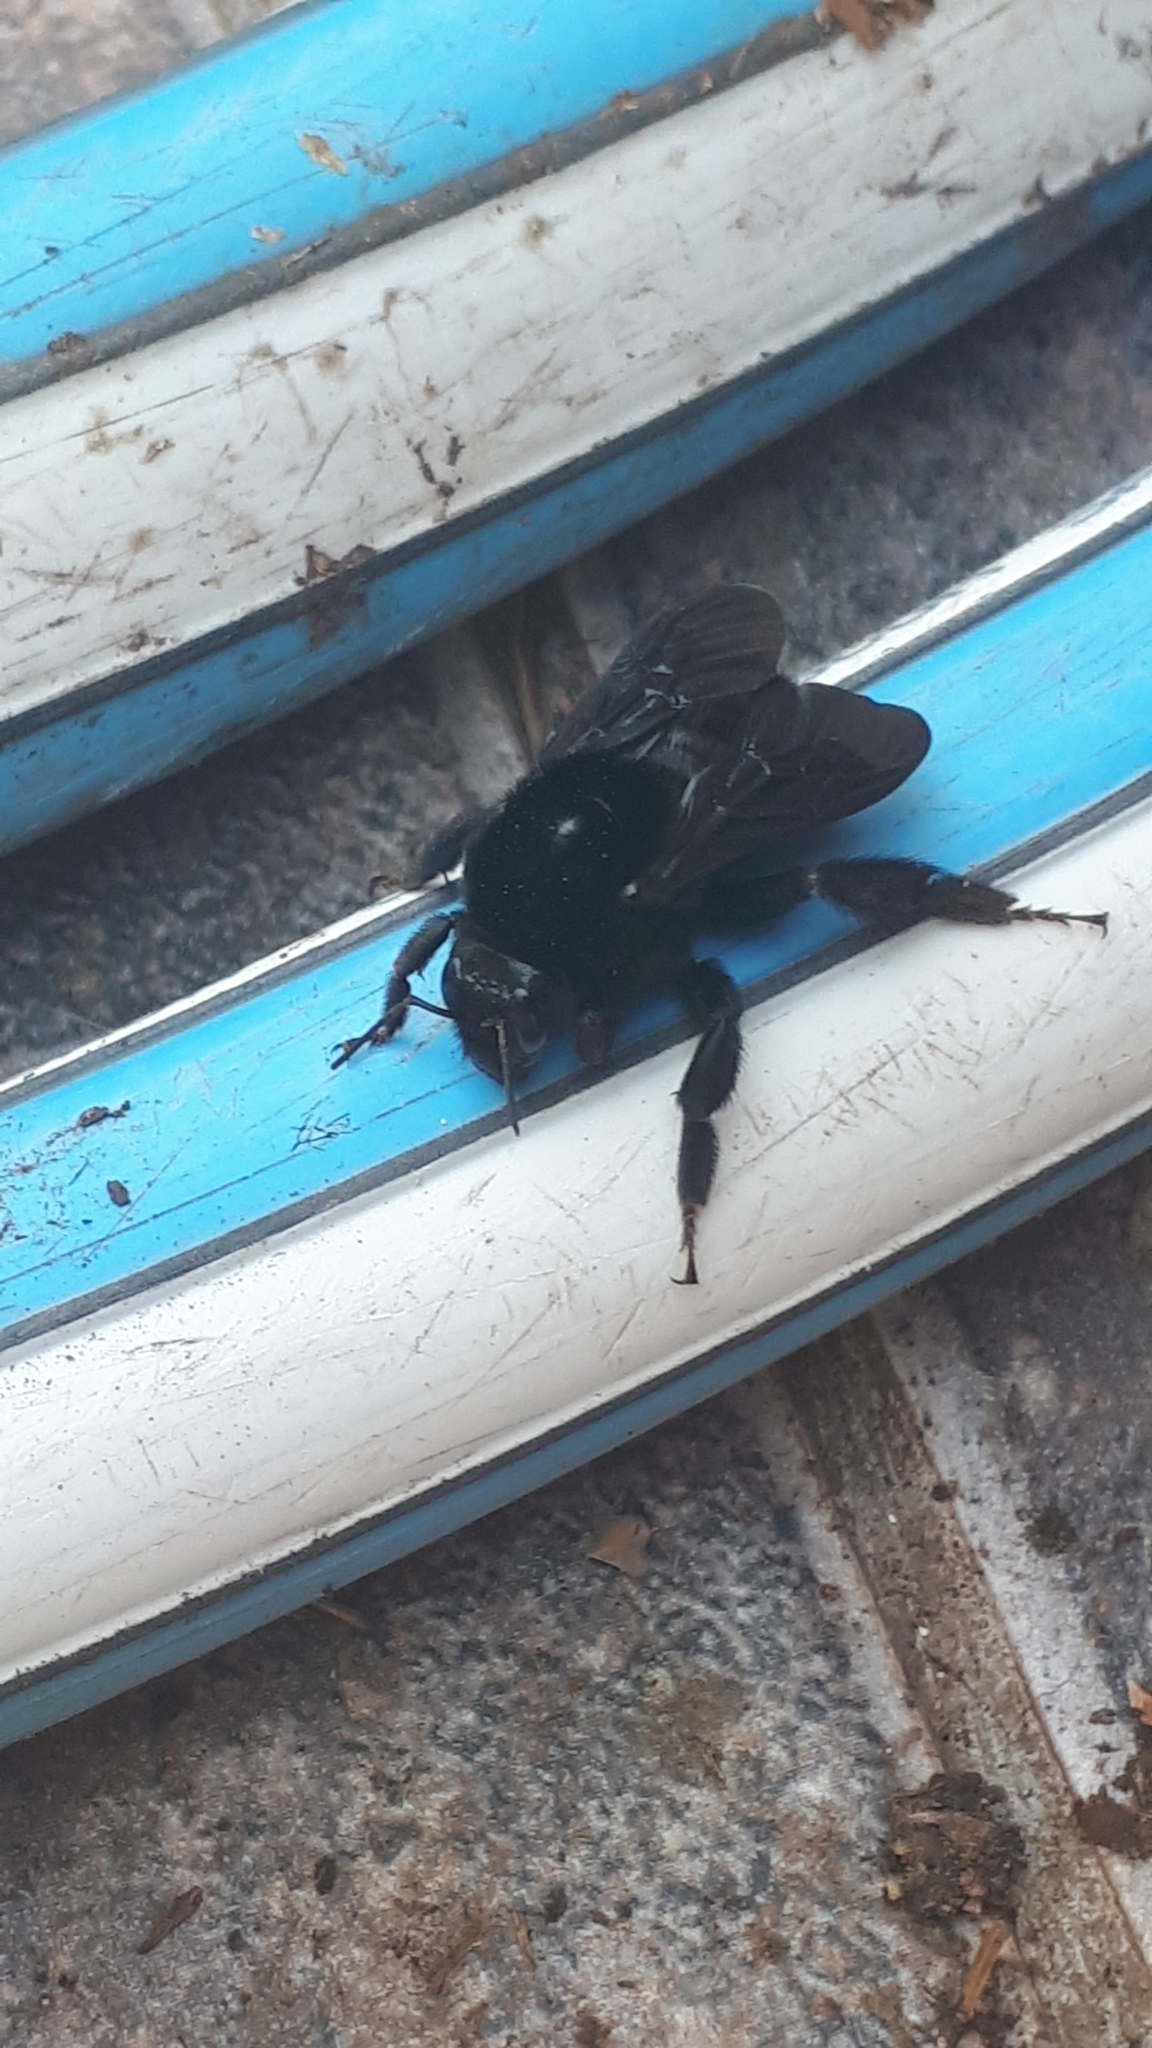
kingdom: Animalia
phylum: Arthropoda
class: Insecta
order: Hymenoptera
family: Apidae
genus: Bombus
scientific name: Bombus pauloensis
